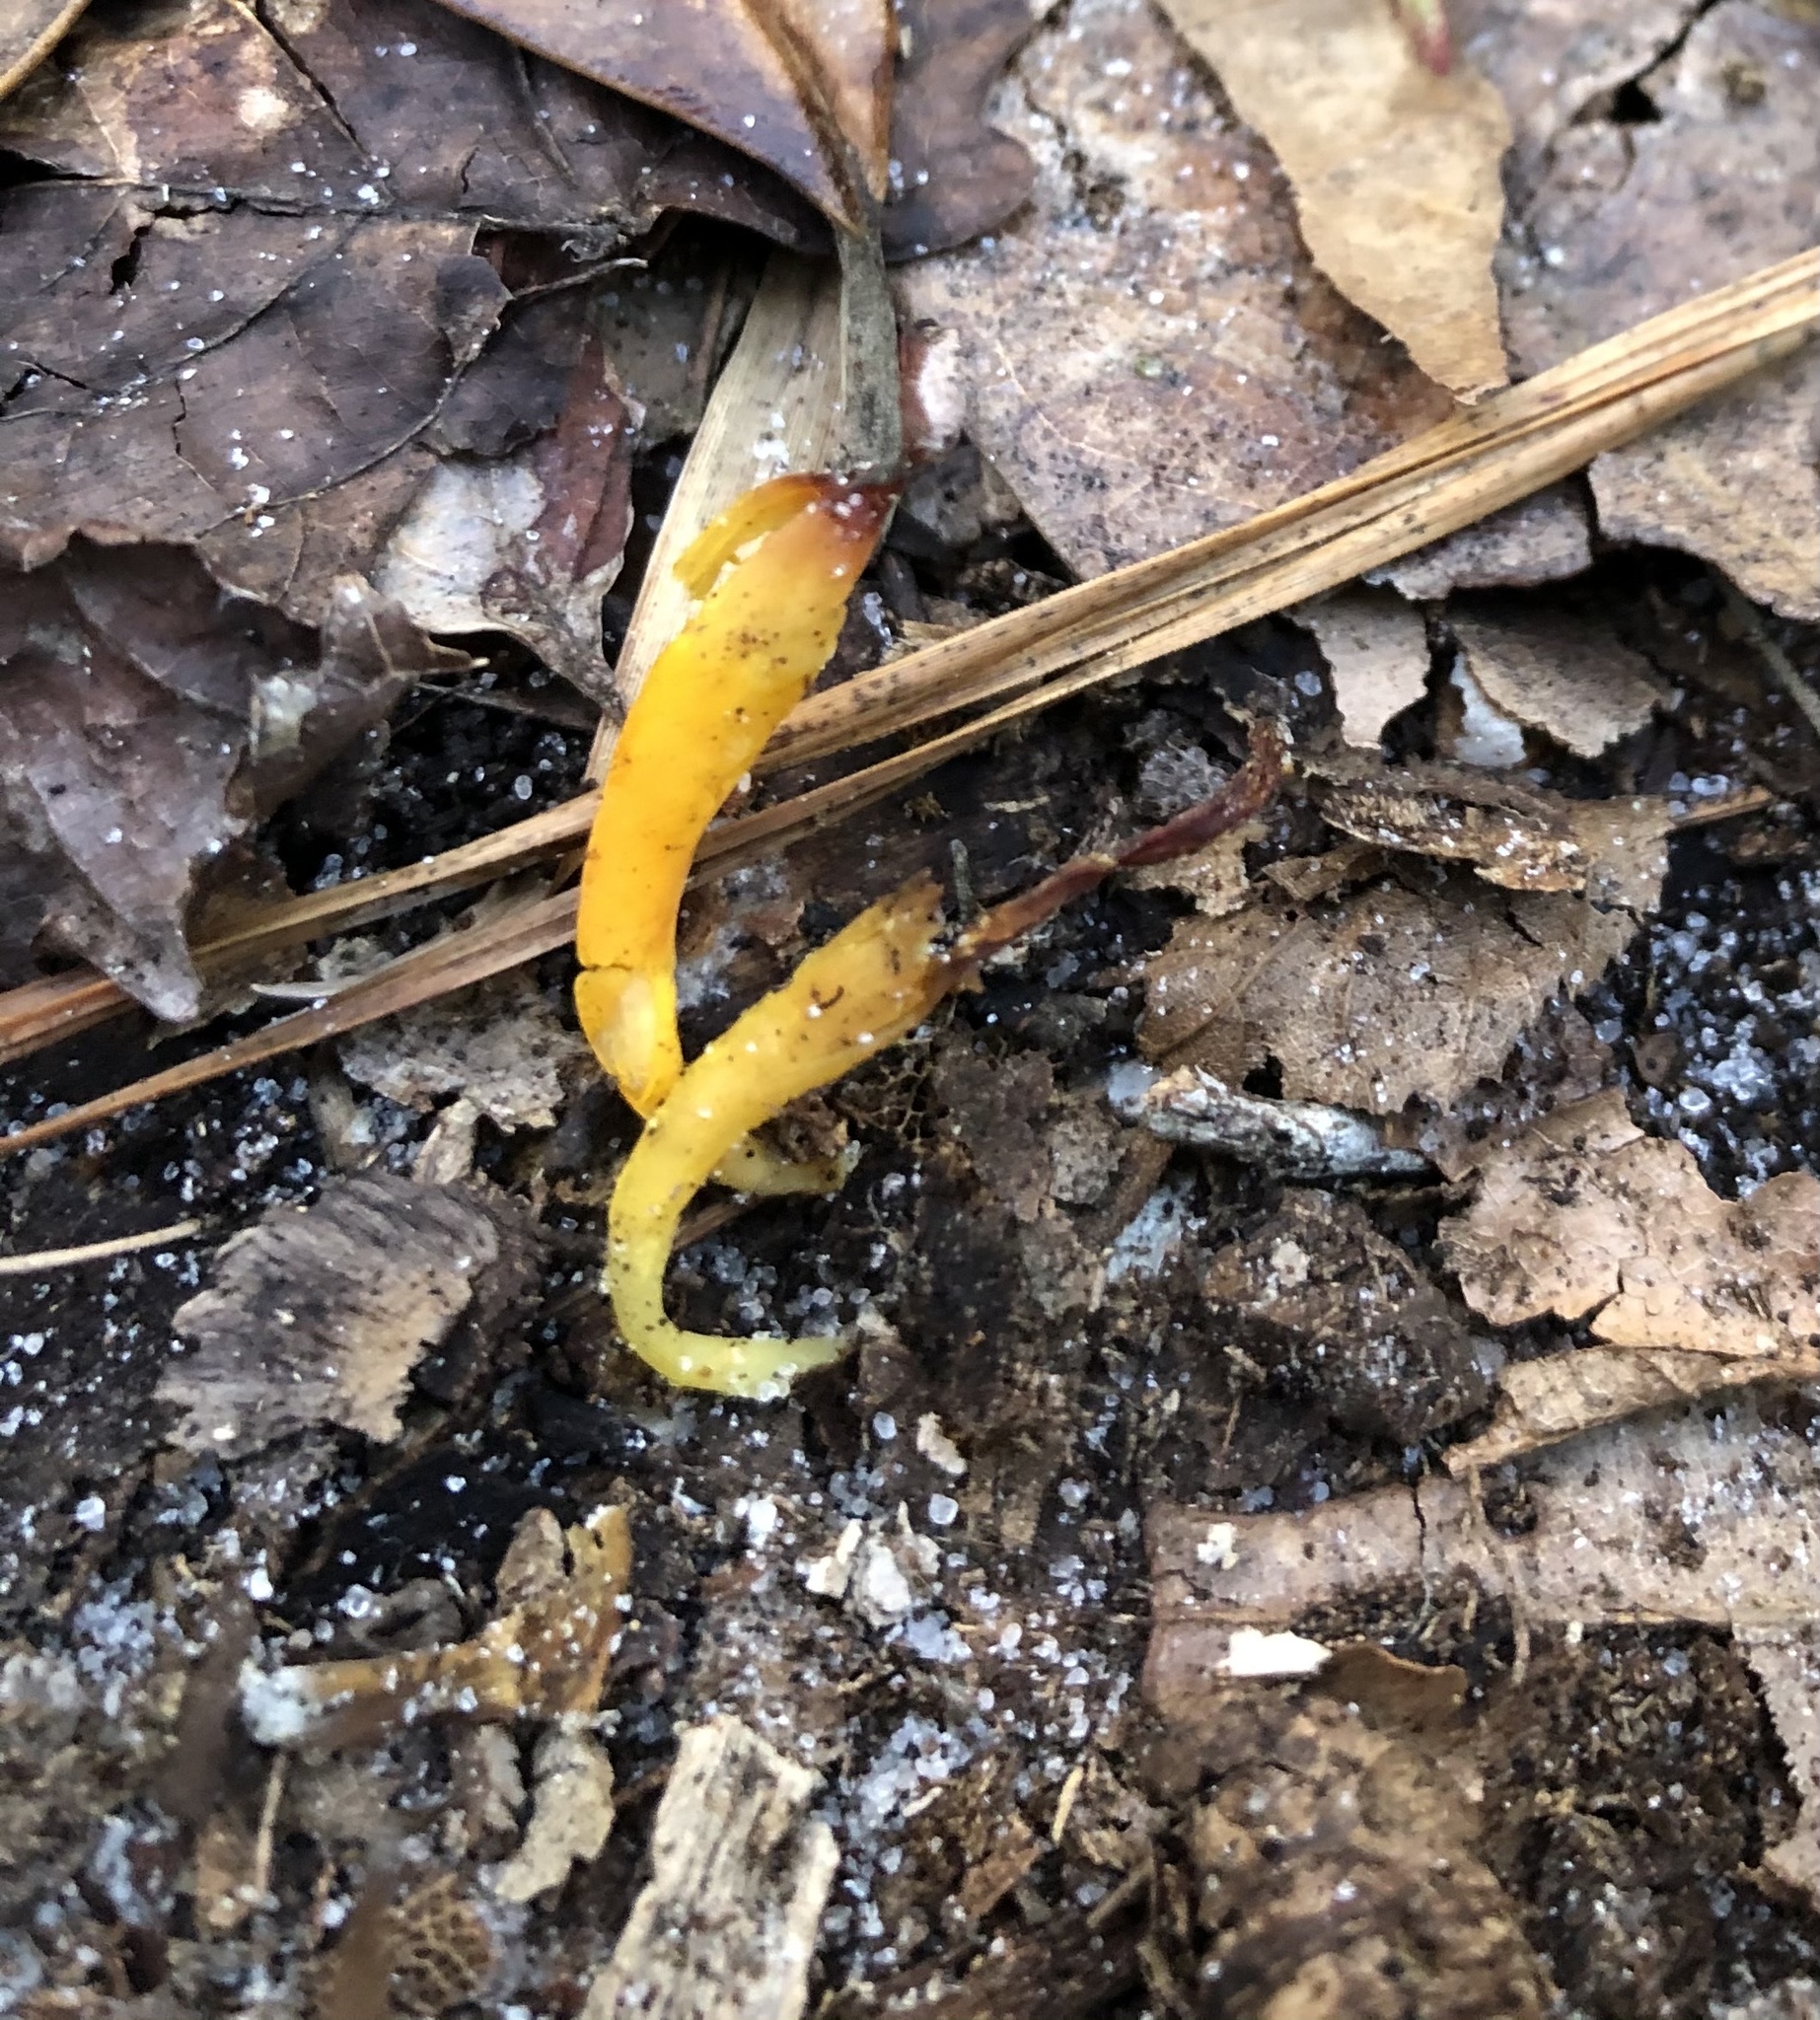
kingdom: Fungi
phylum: Basidiomycota
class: Agaricomycetes
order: Agaricales
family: Clavariaceae
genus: Clavulinopsis
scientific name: Clavulinopsis laeticolor
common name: Handsome club
